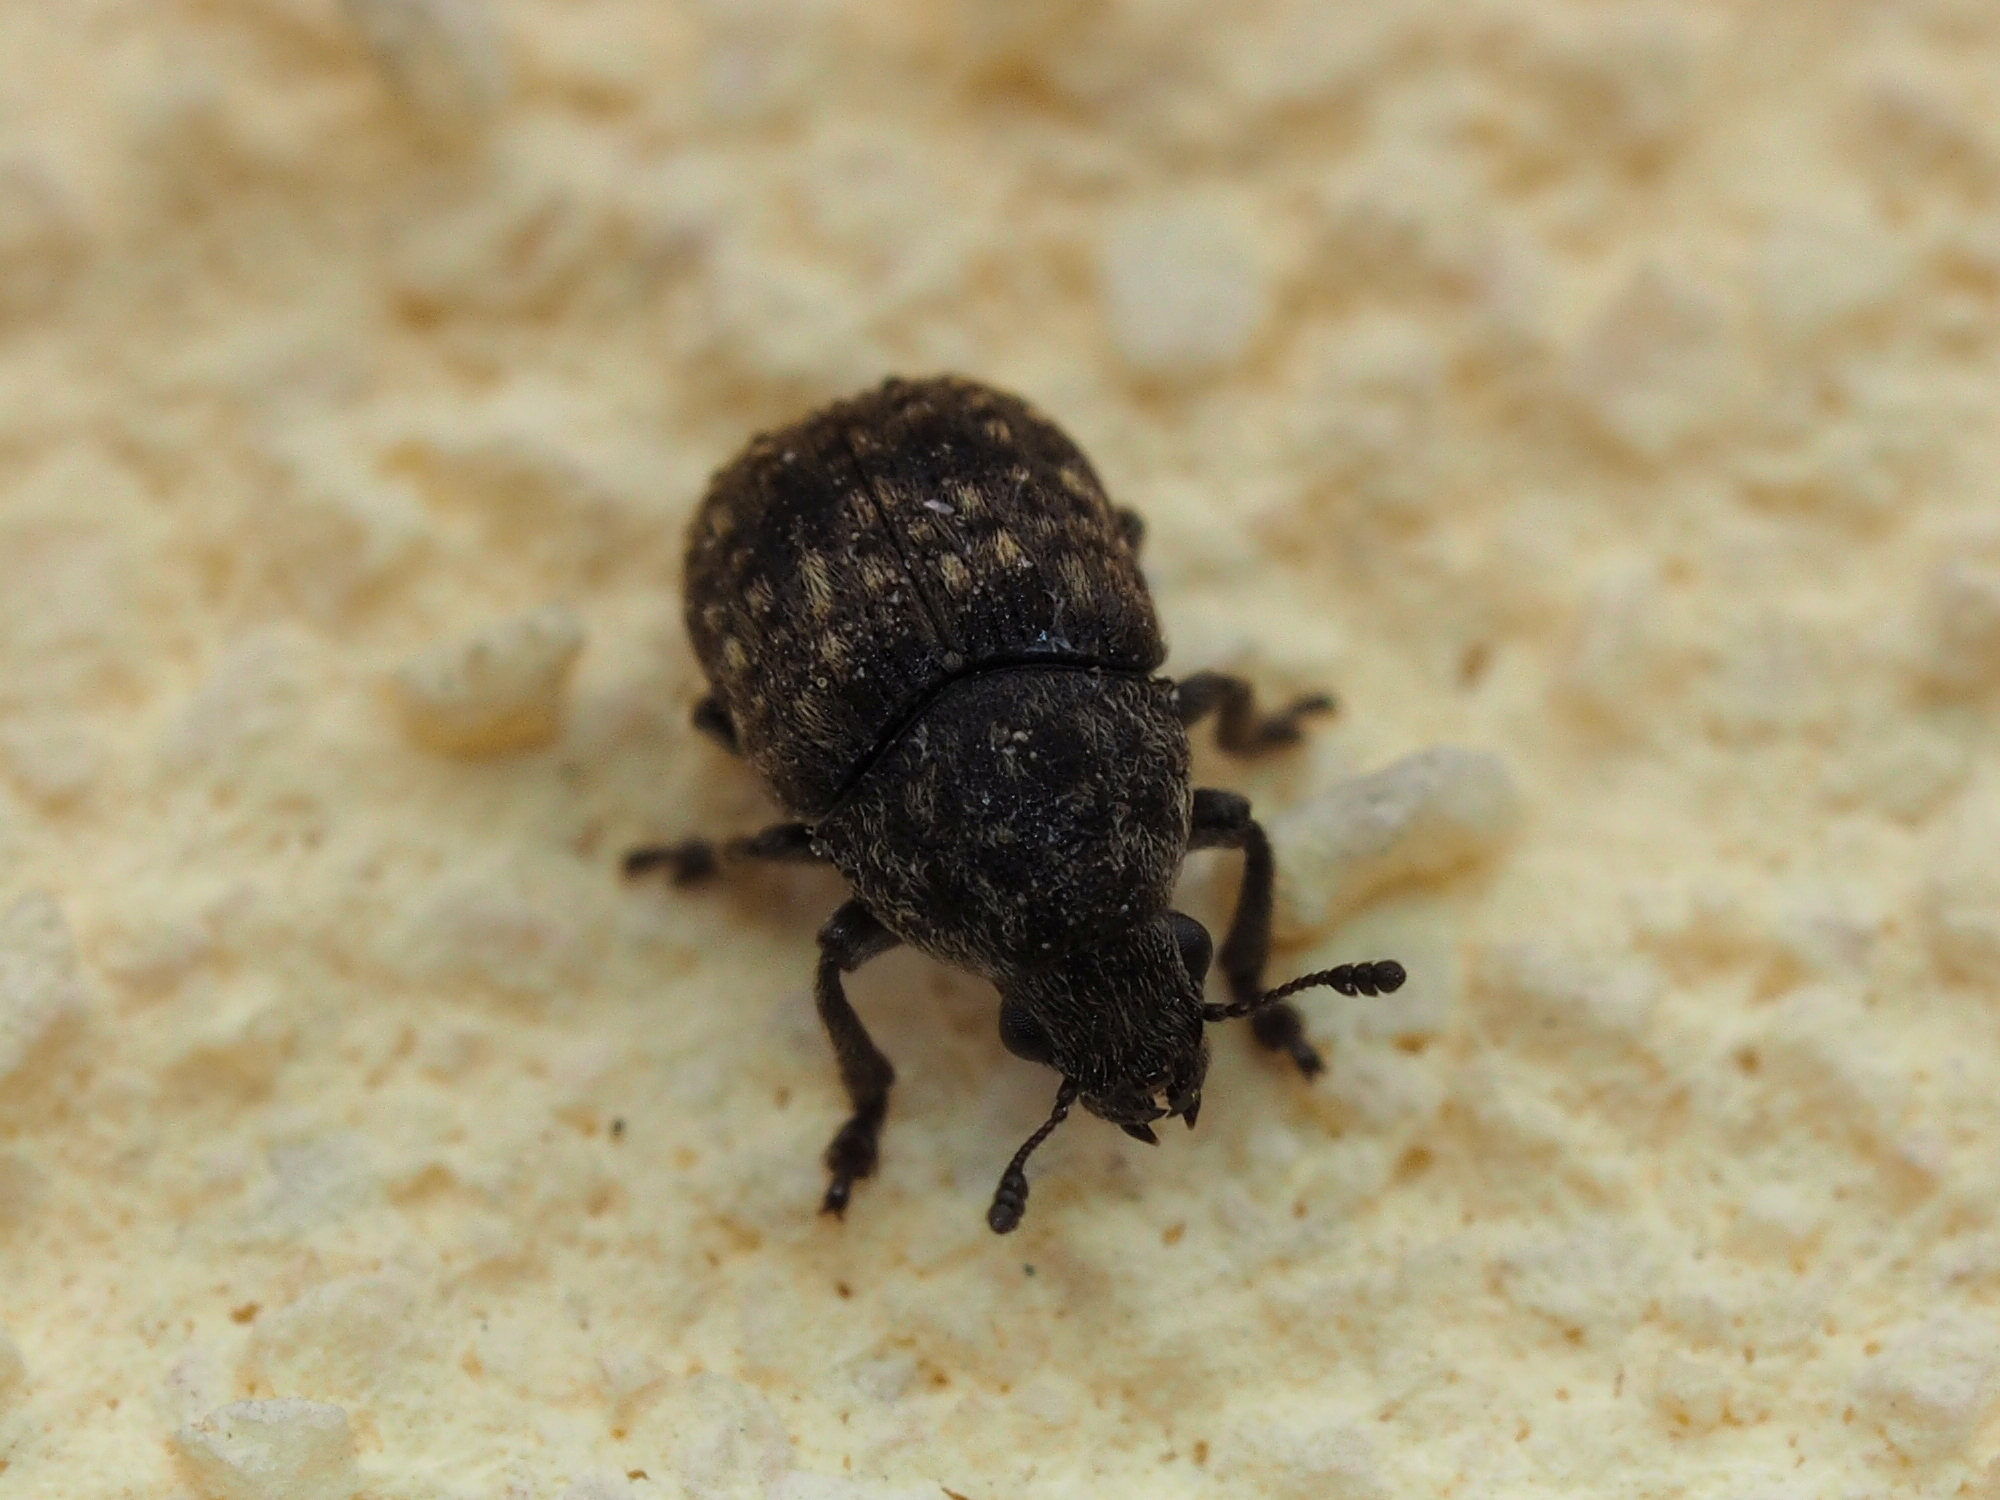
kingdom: Animalia
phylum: Arthropoda
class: Insecta
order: Coleoptera
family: Anthribidae
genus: Anthribus
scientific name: Anthribus nebulosus
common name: Fungus weevil
